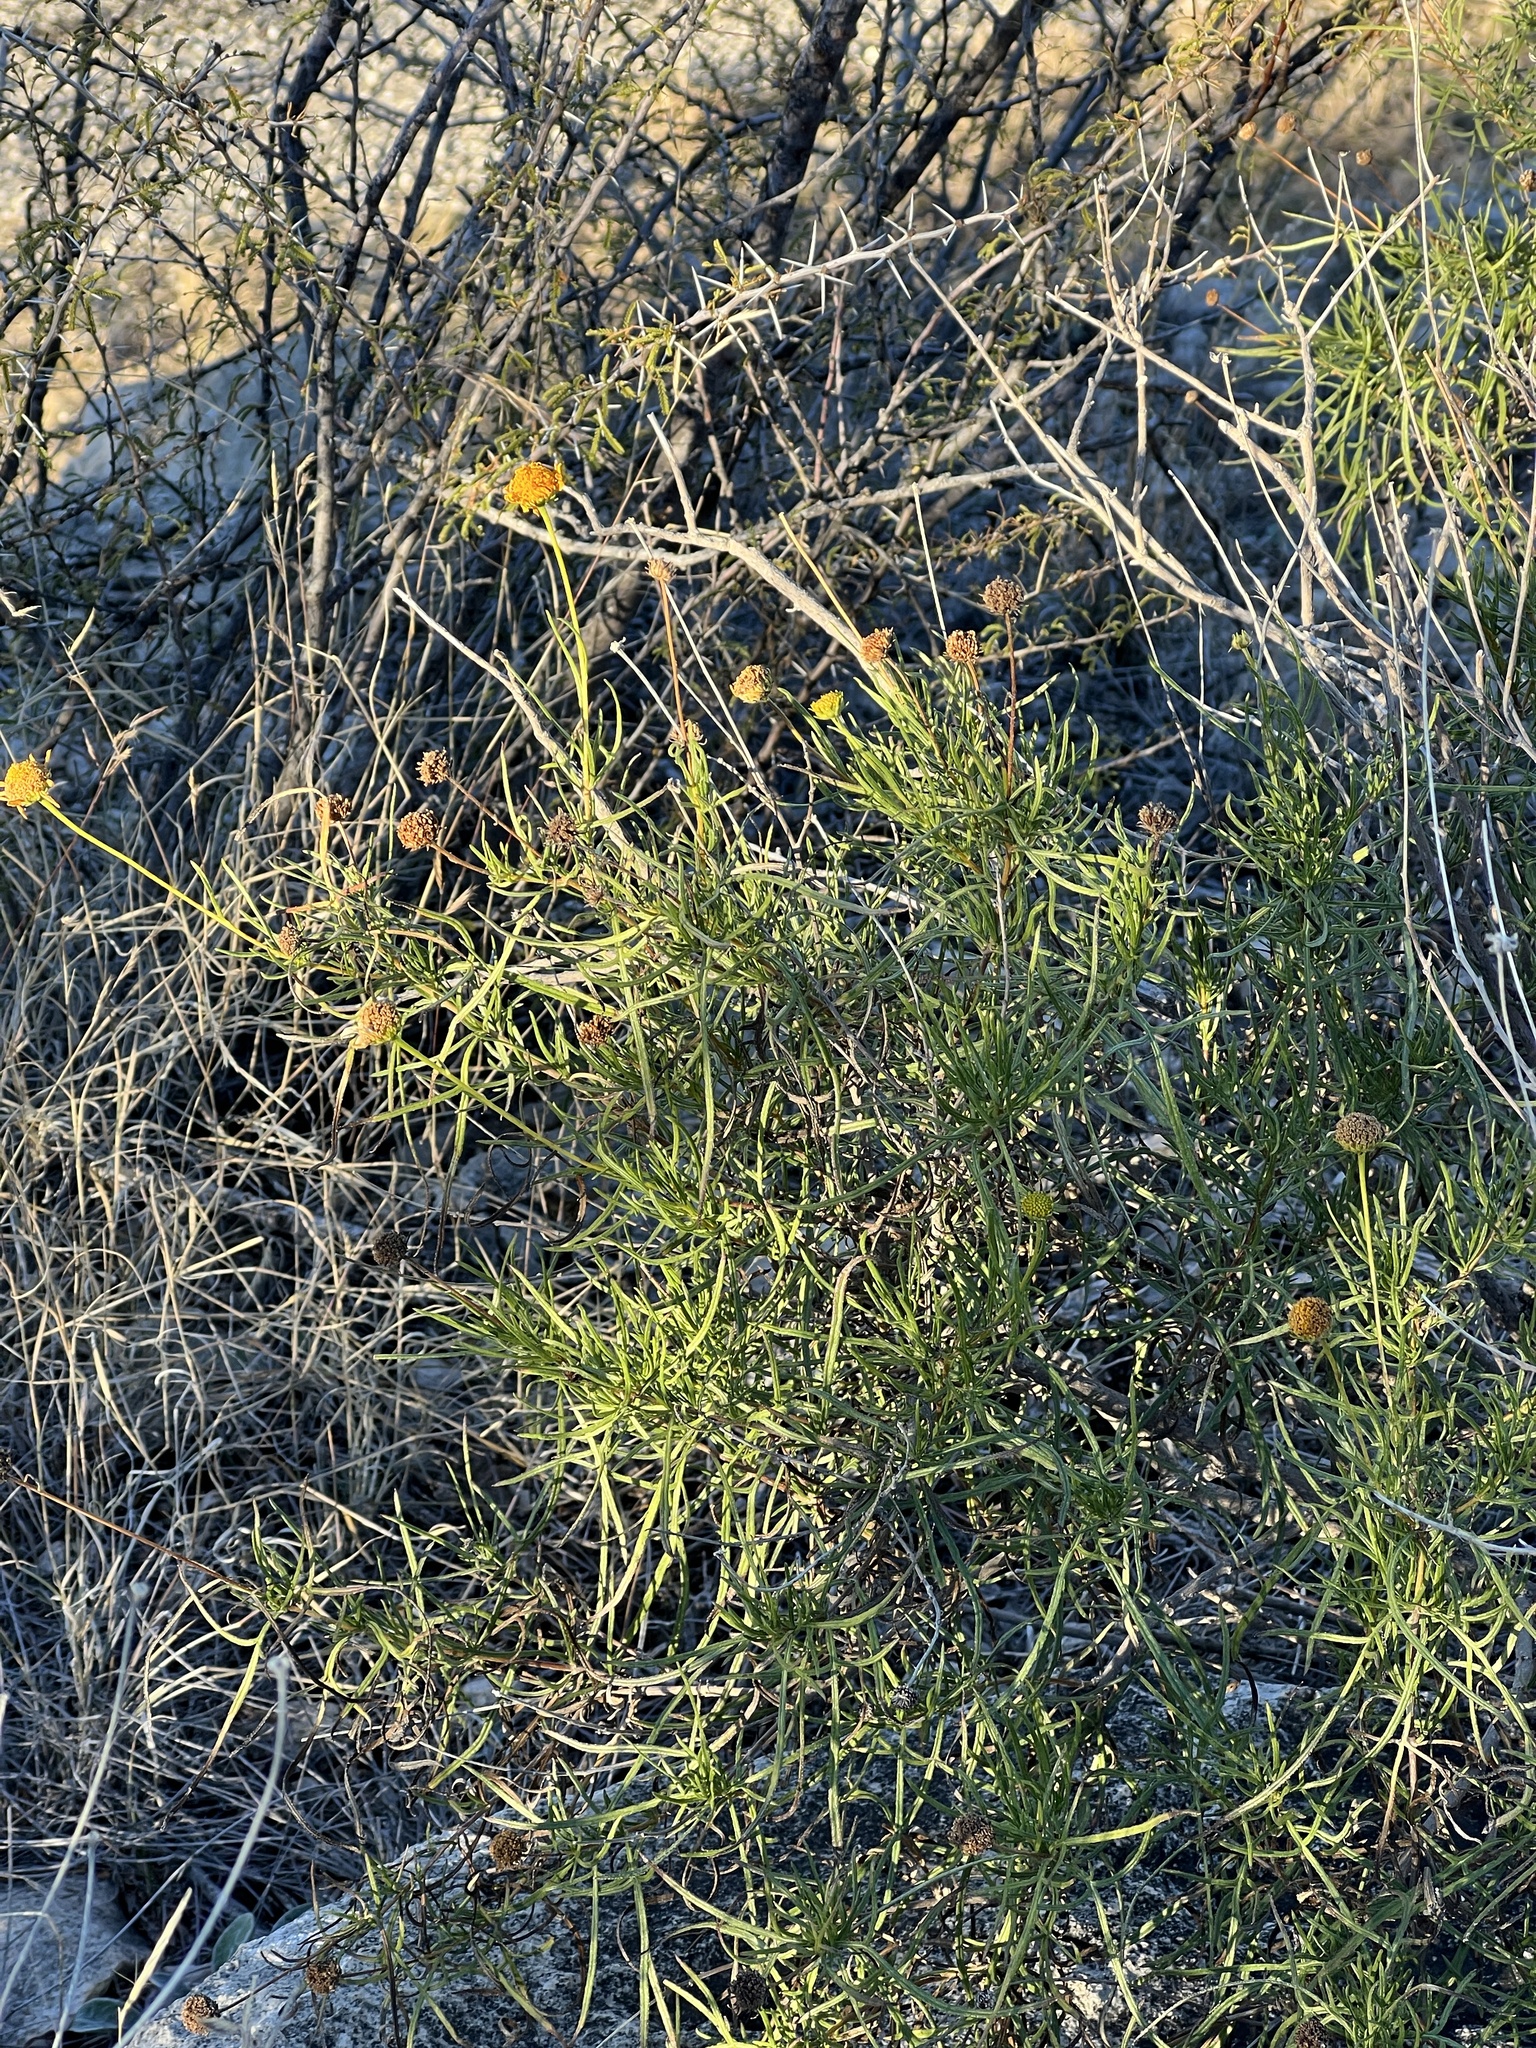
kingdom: Plantae
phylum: Tracheophyta
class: Magnoliopsida
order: Asterales
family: Asteraceae
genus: Sidneya
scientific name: Sidneya tenuifolia
